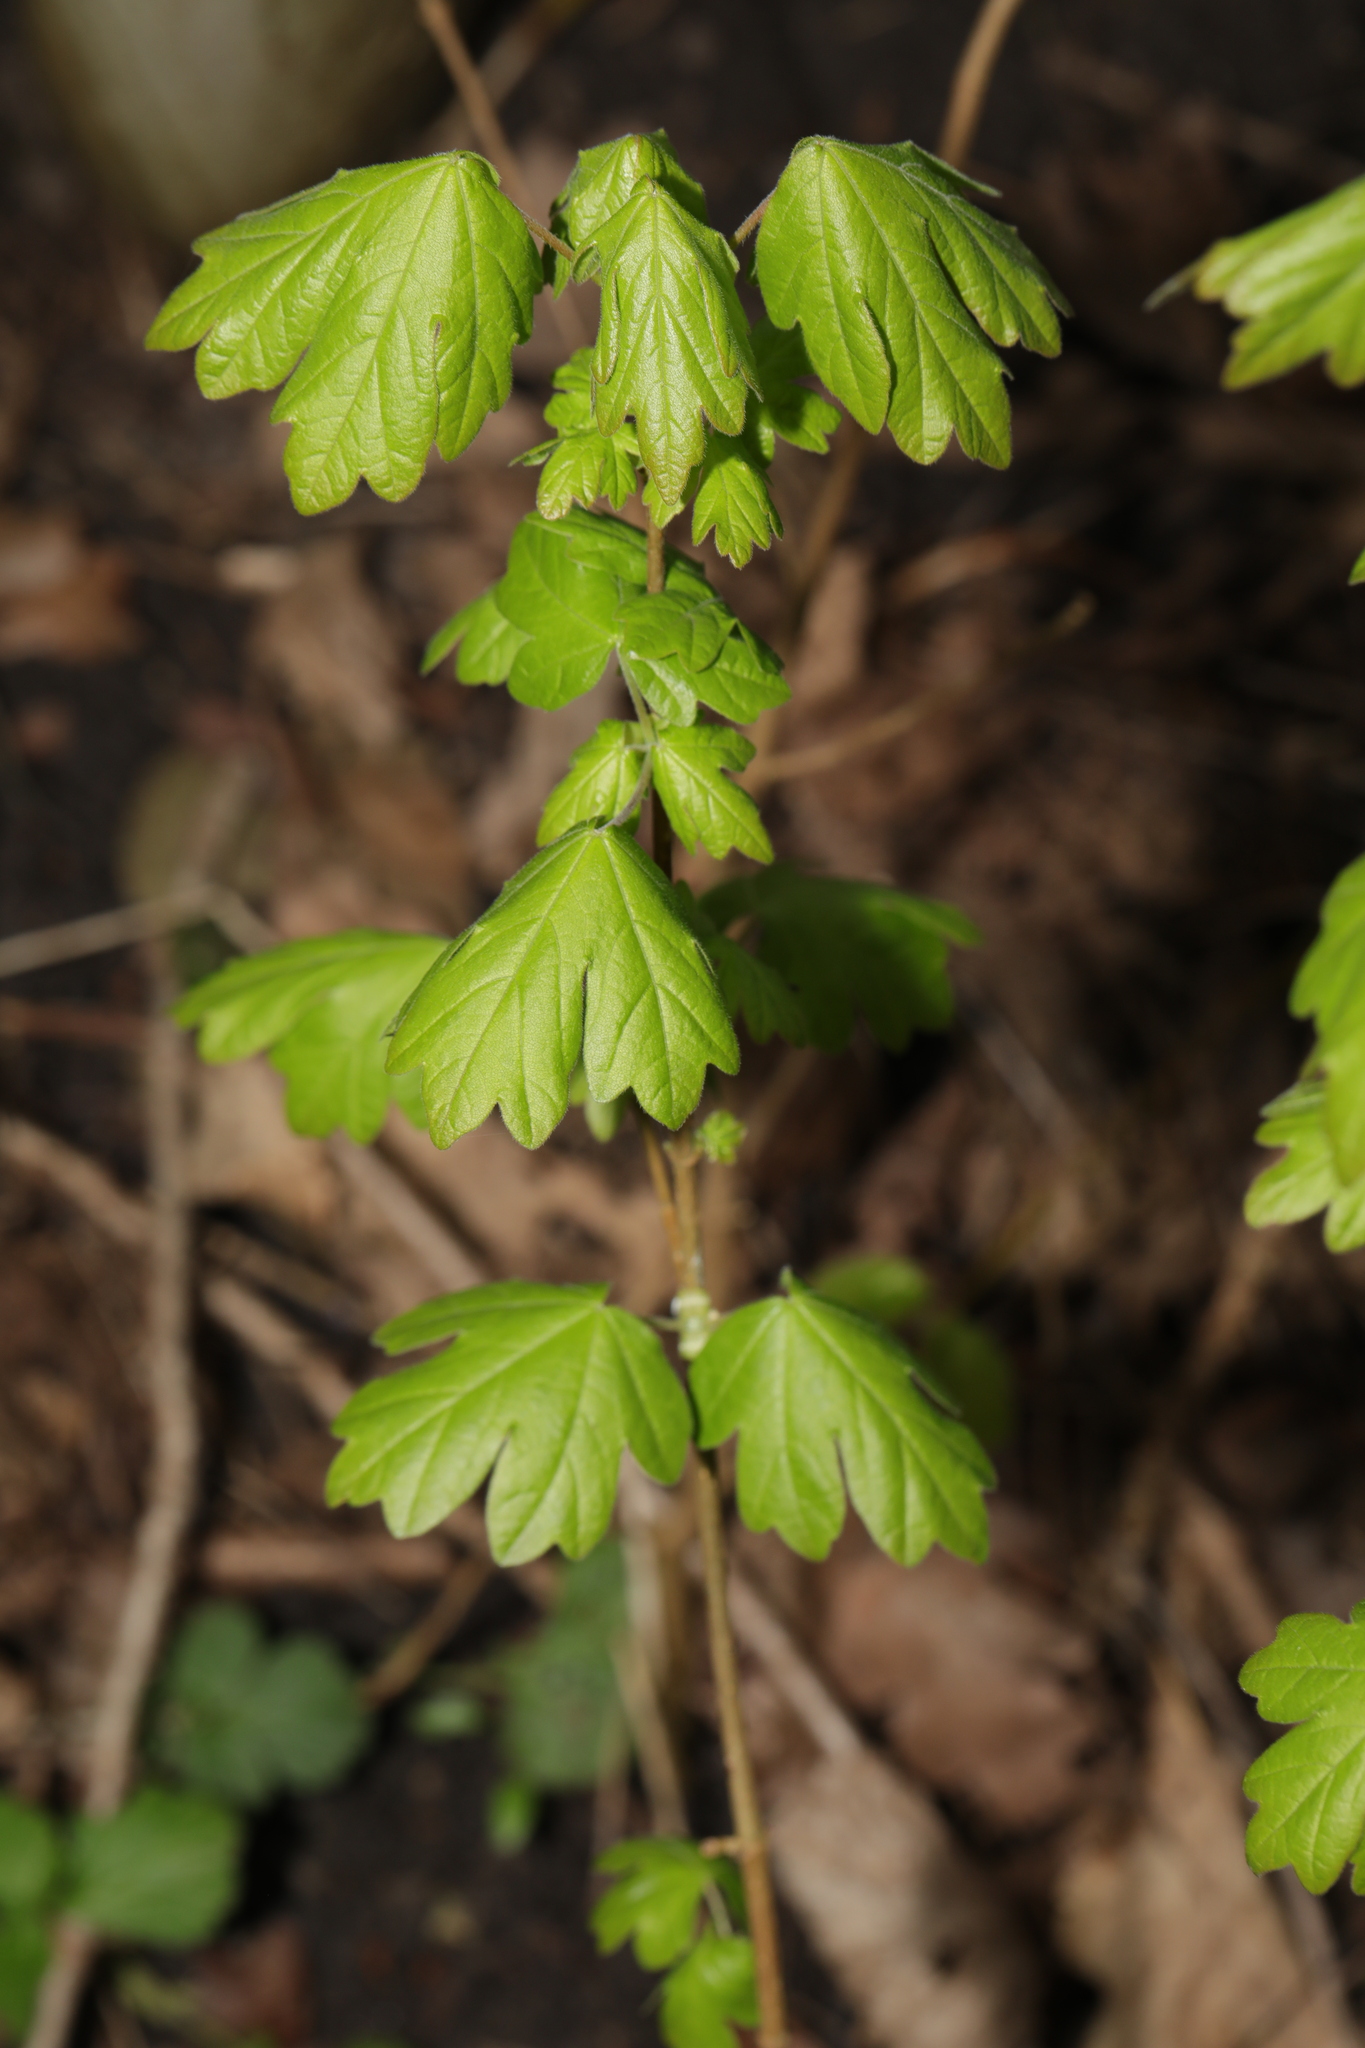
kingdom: Plantae
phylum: Tracheophyta
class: Magnoliopsida
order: Sapindales
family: Sapindaceae
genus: Acer
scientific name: Acer campestre
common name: Field maple
